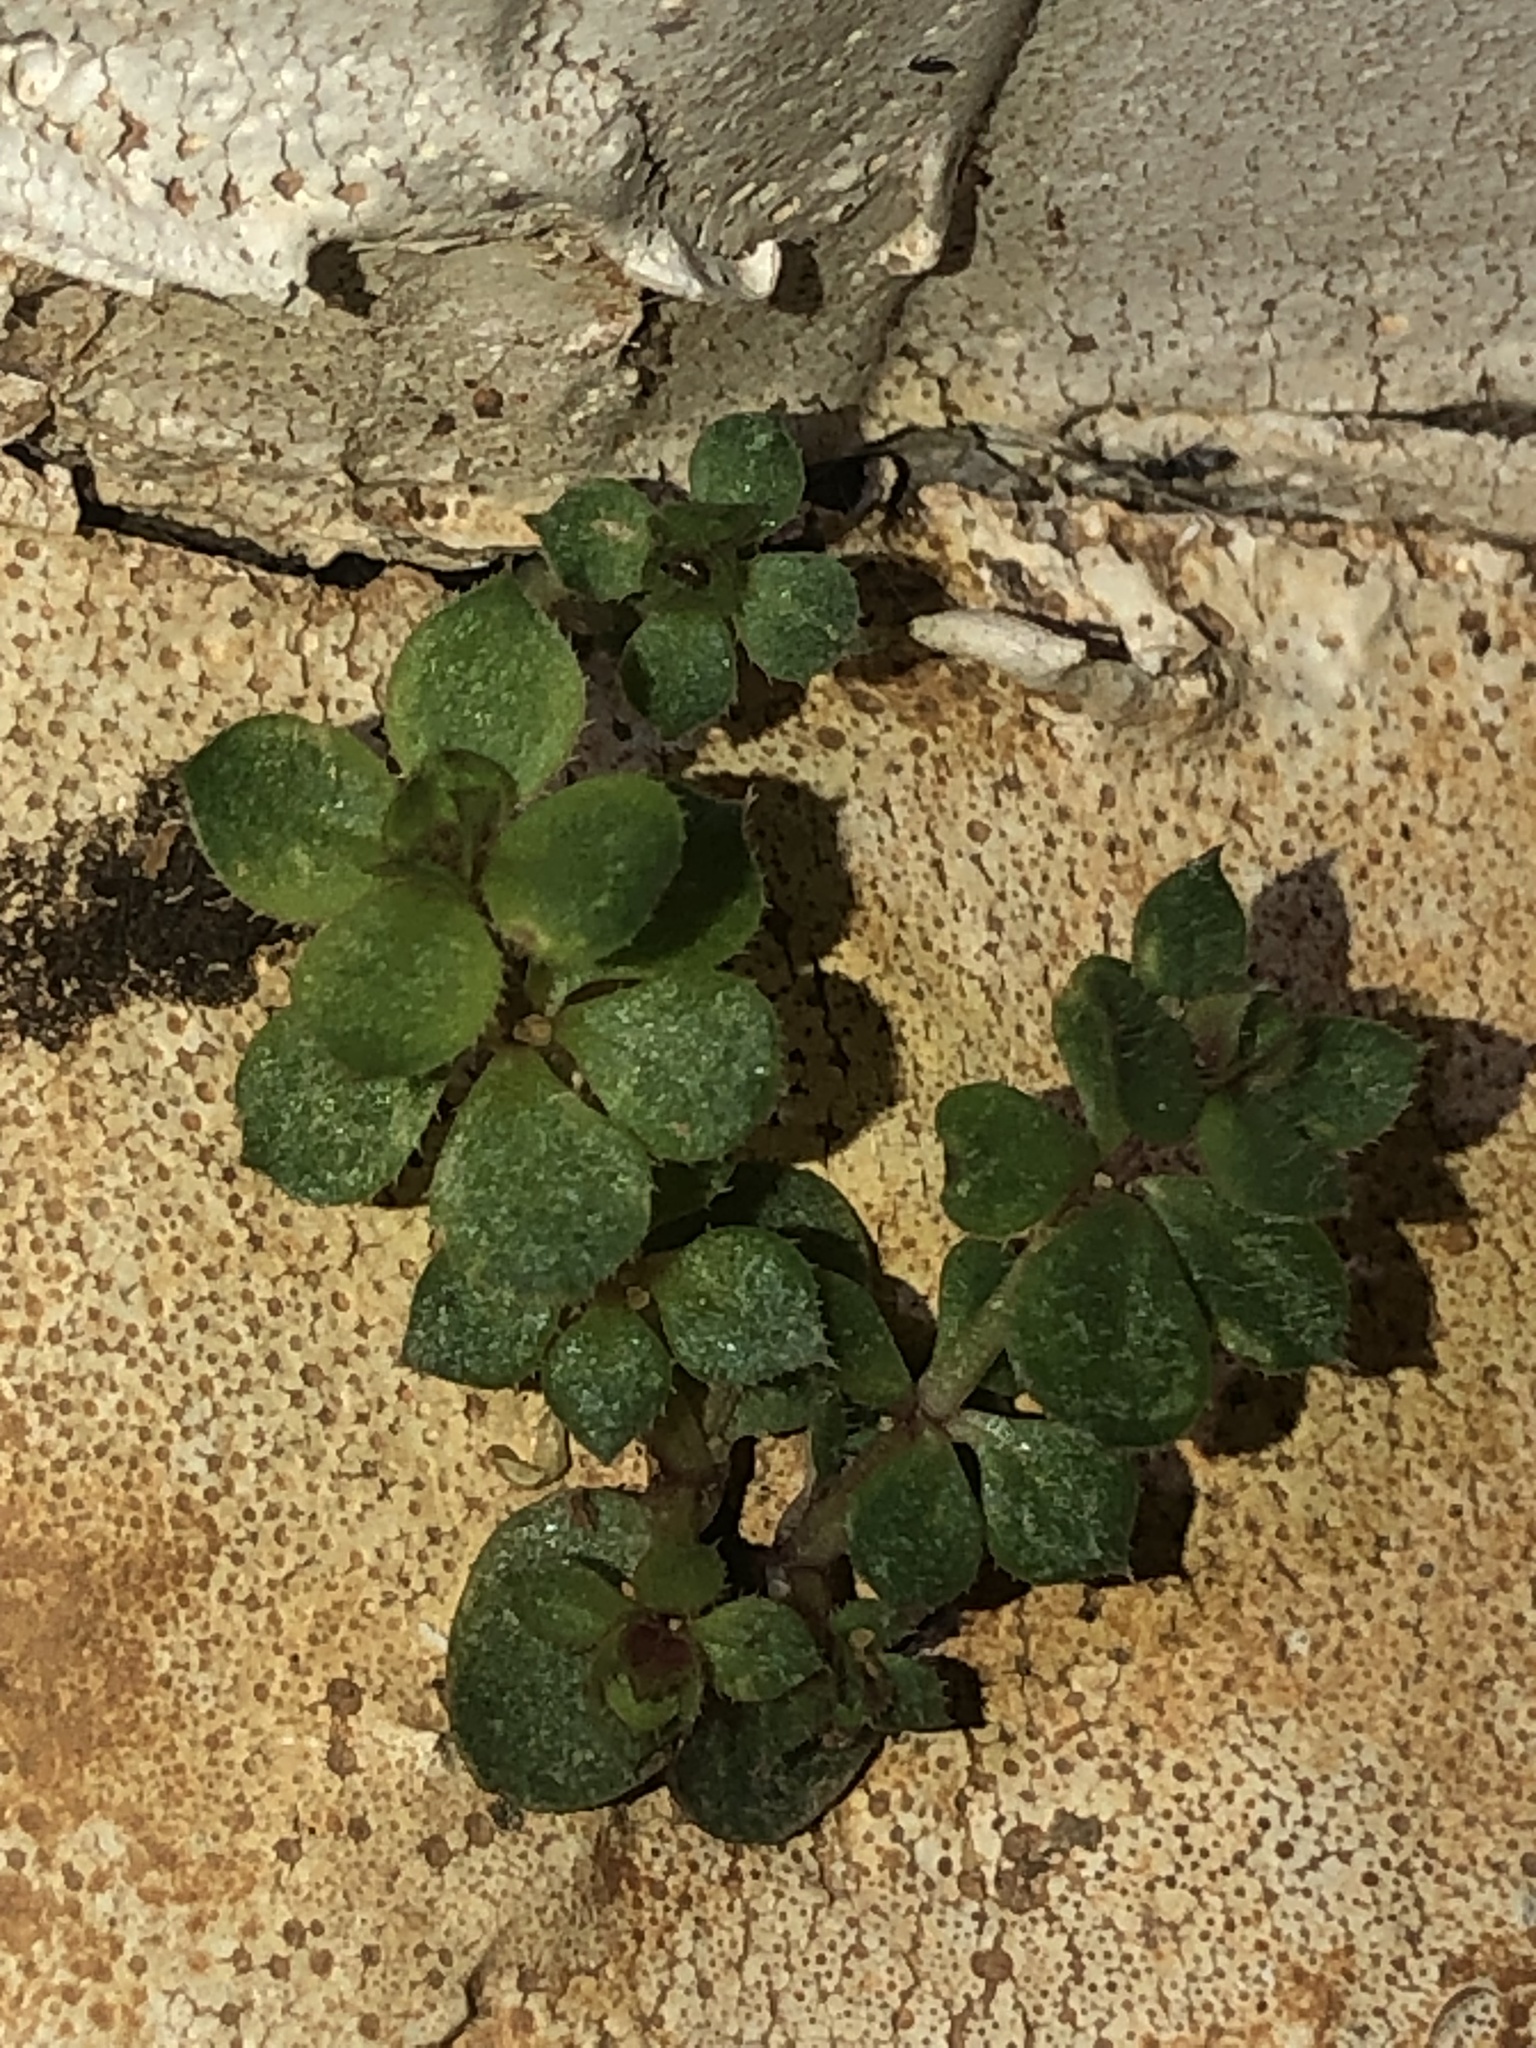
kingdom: Plantae
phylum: Tracheophyta
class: Magnoliopsida
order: Gentianales
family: Rubiaceae
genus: Sherardia
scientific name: Sherardia arvensis
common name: Field madder
